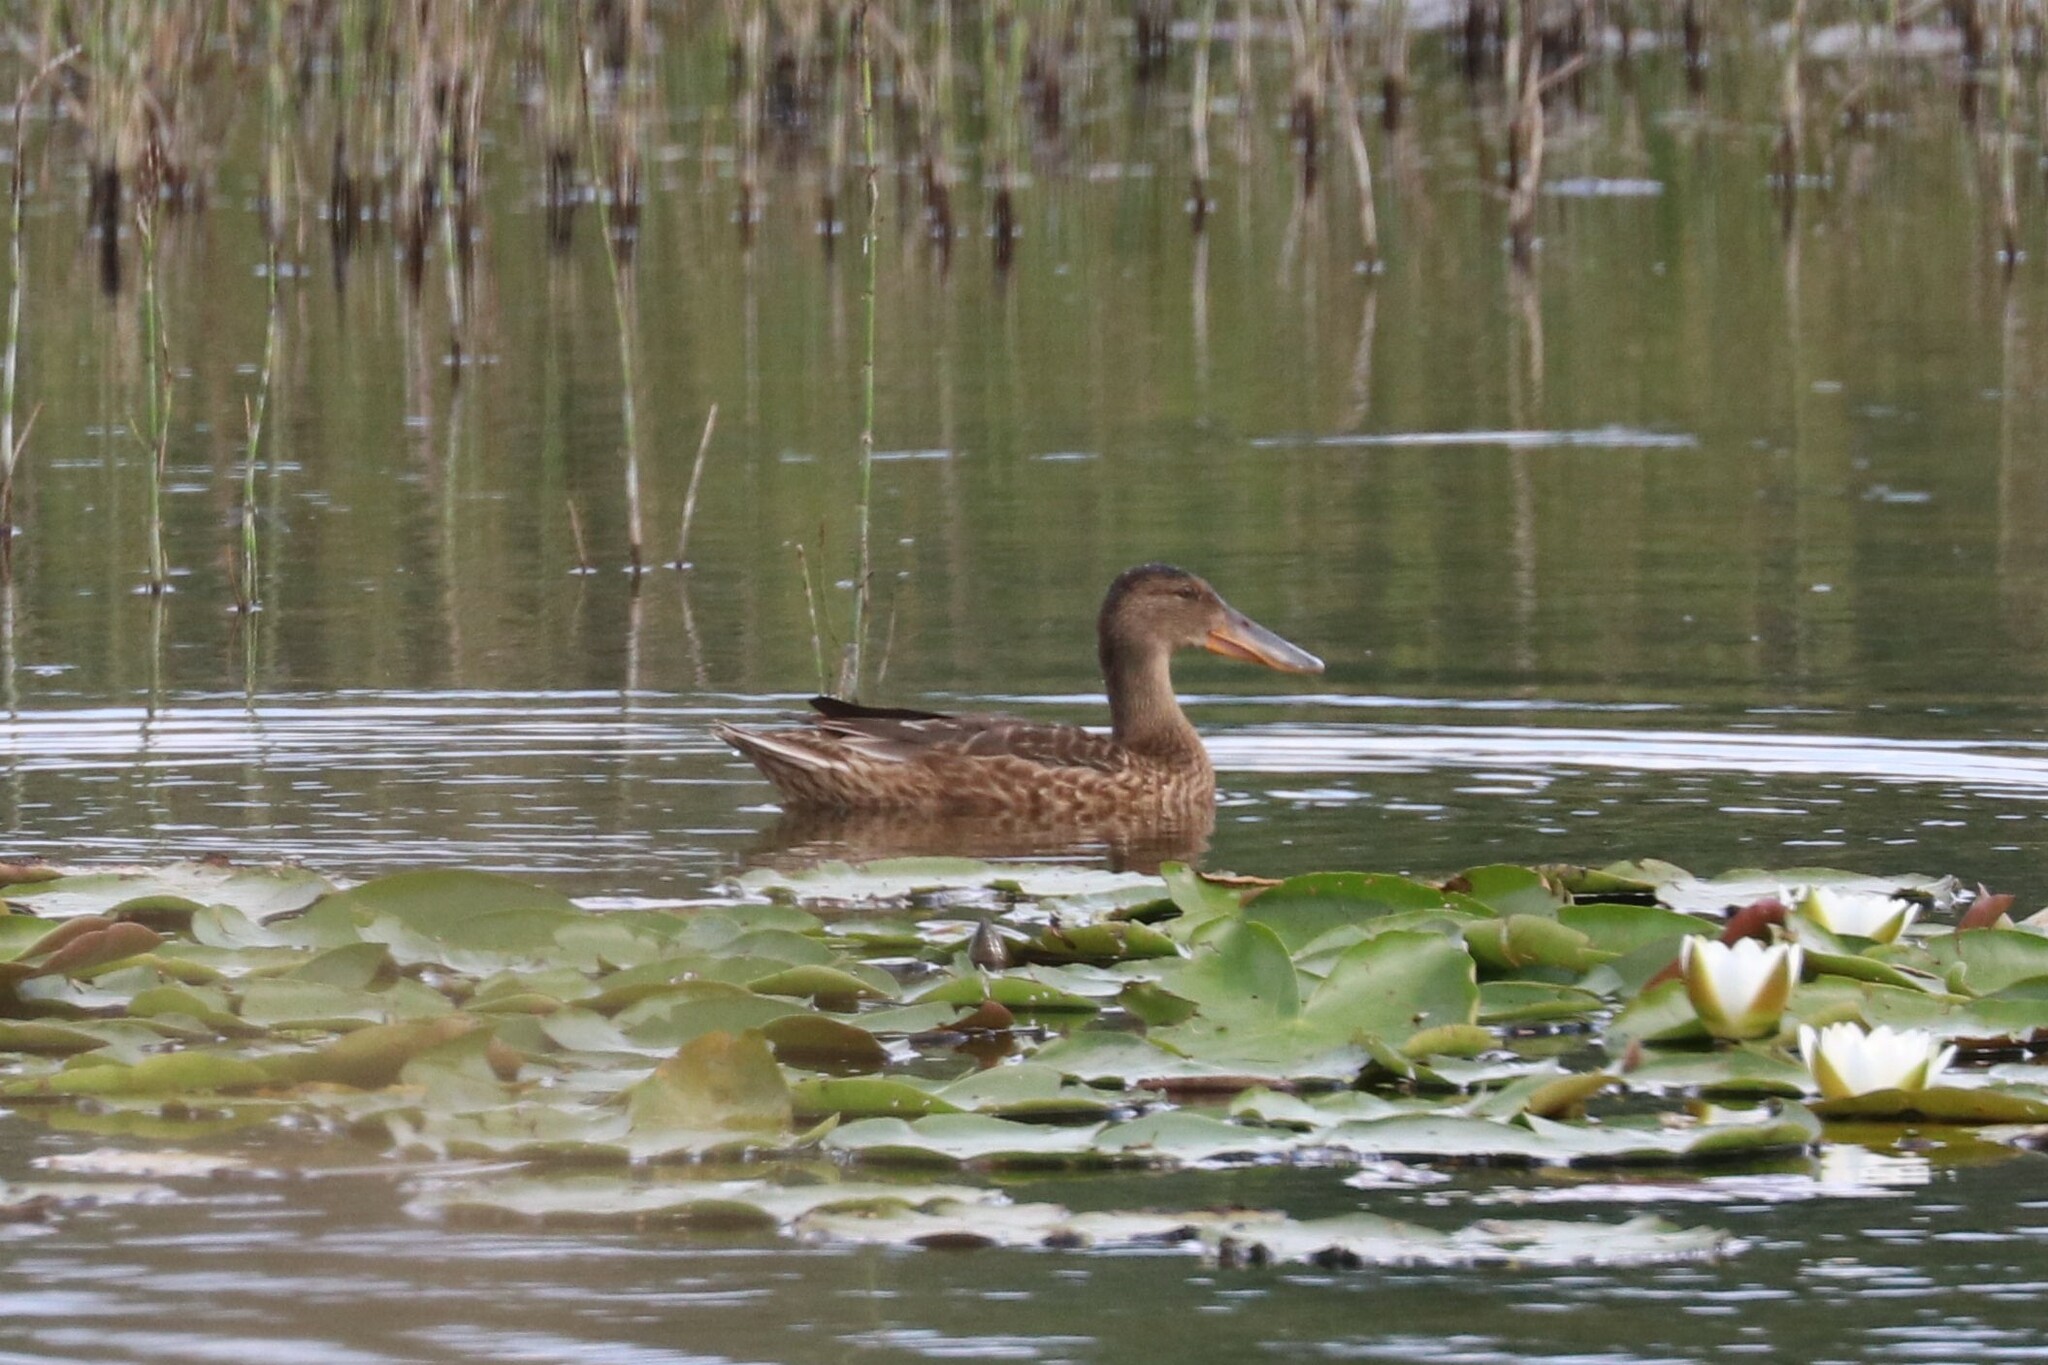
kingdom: Animalia
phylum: Chordata
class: Aves
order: Anseriformes
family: Anatidae
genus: Spatula
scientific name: Spatula clypeata
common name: Northern shoveler
